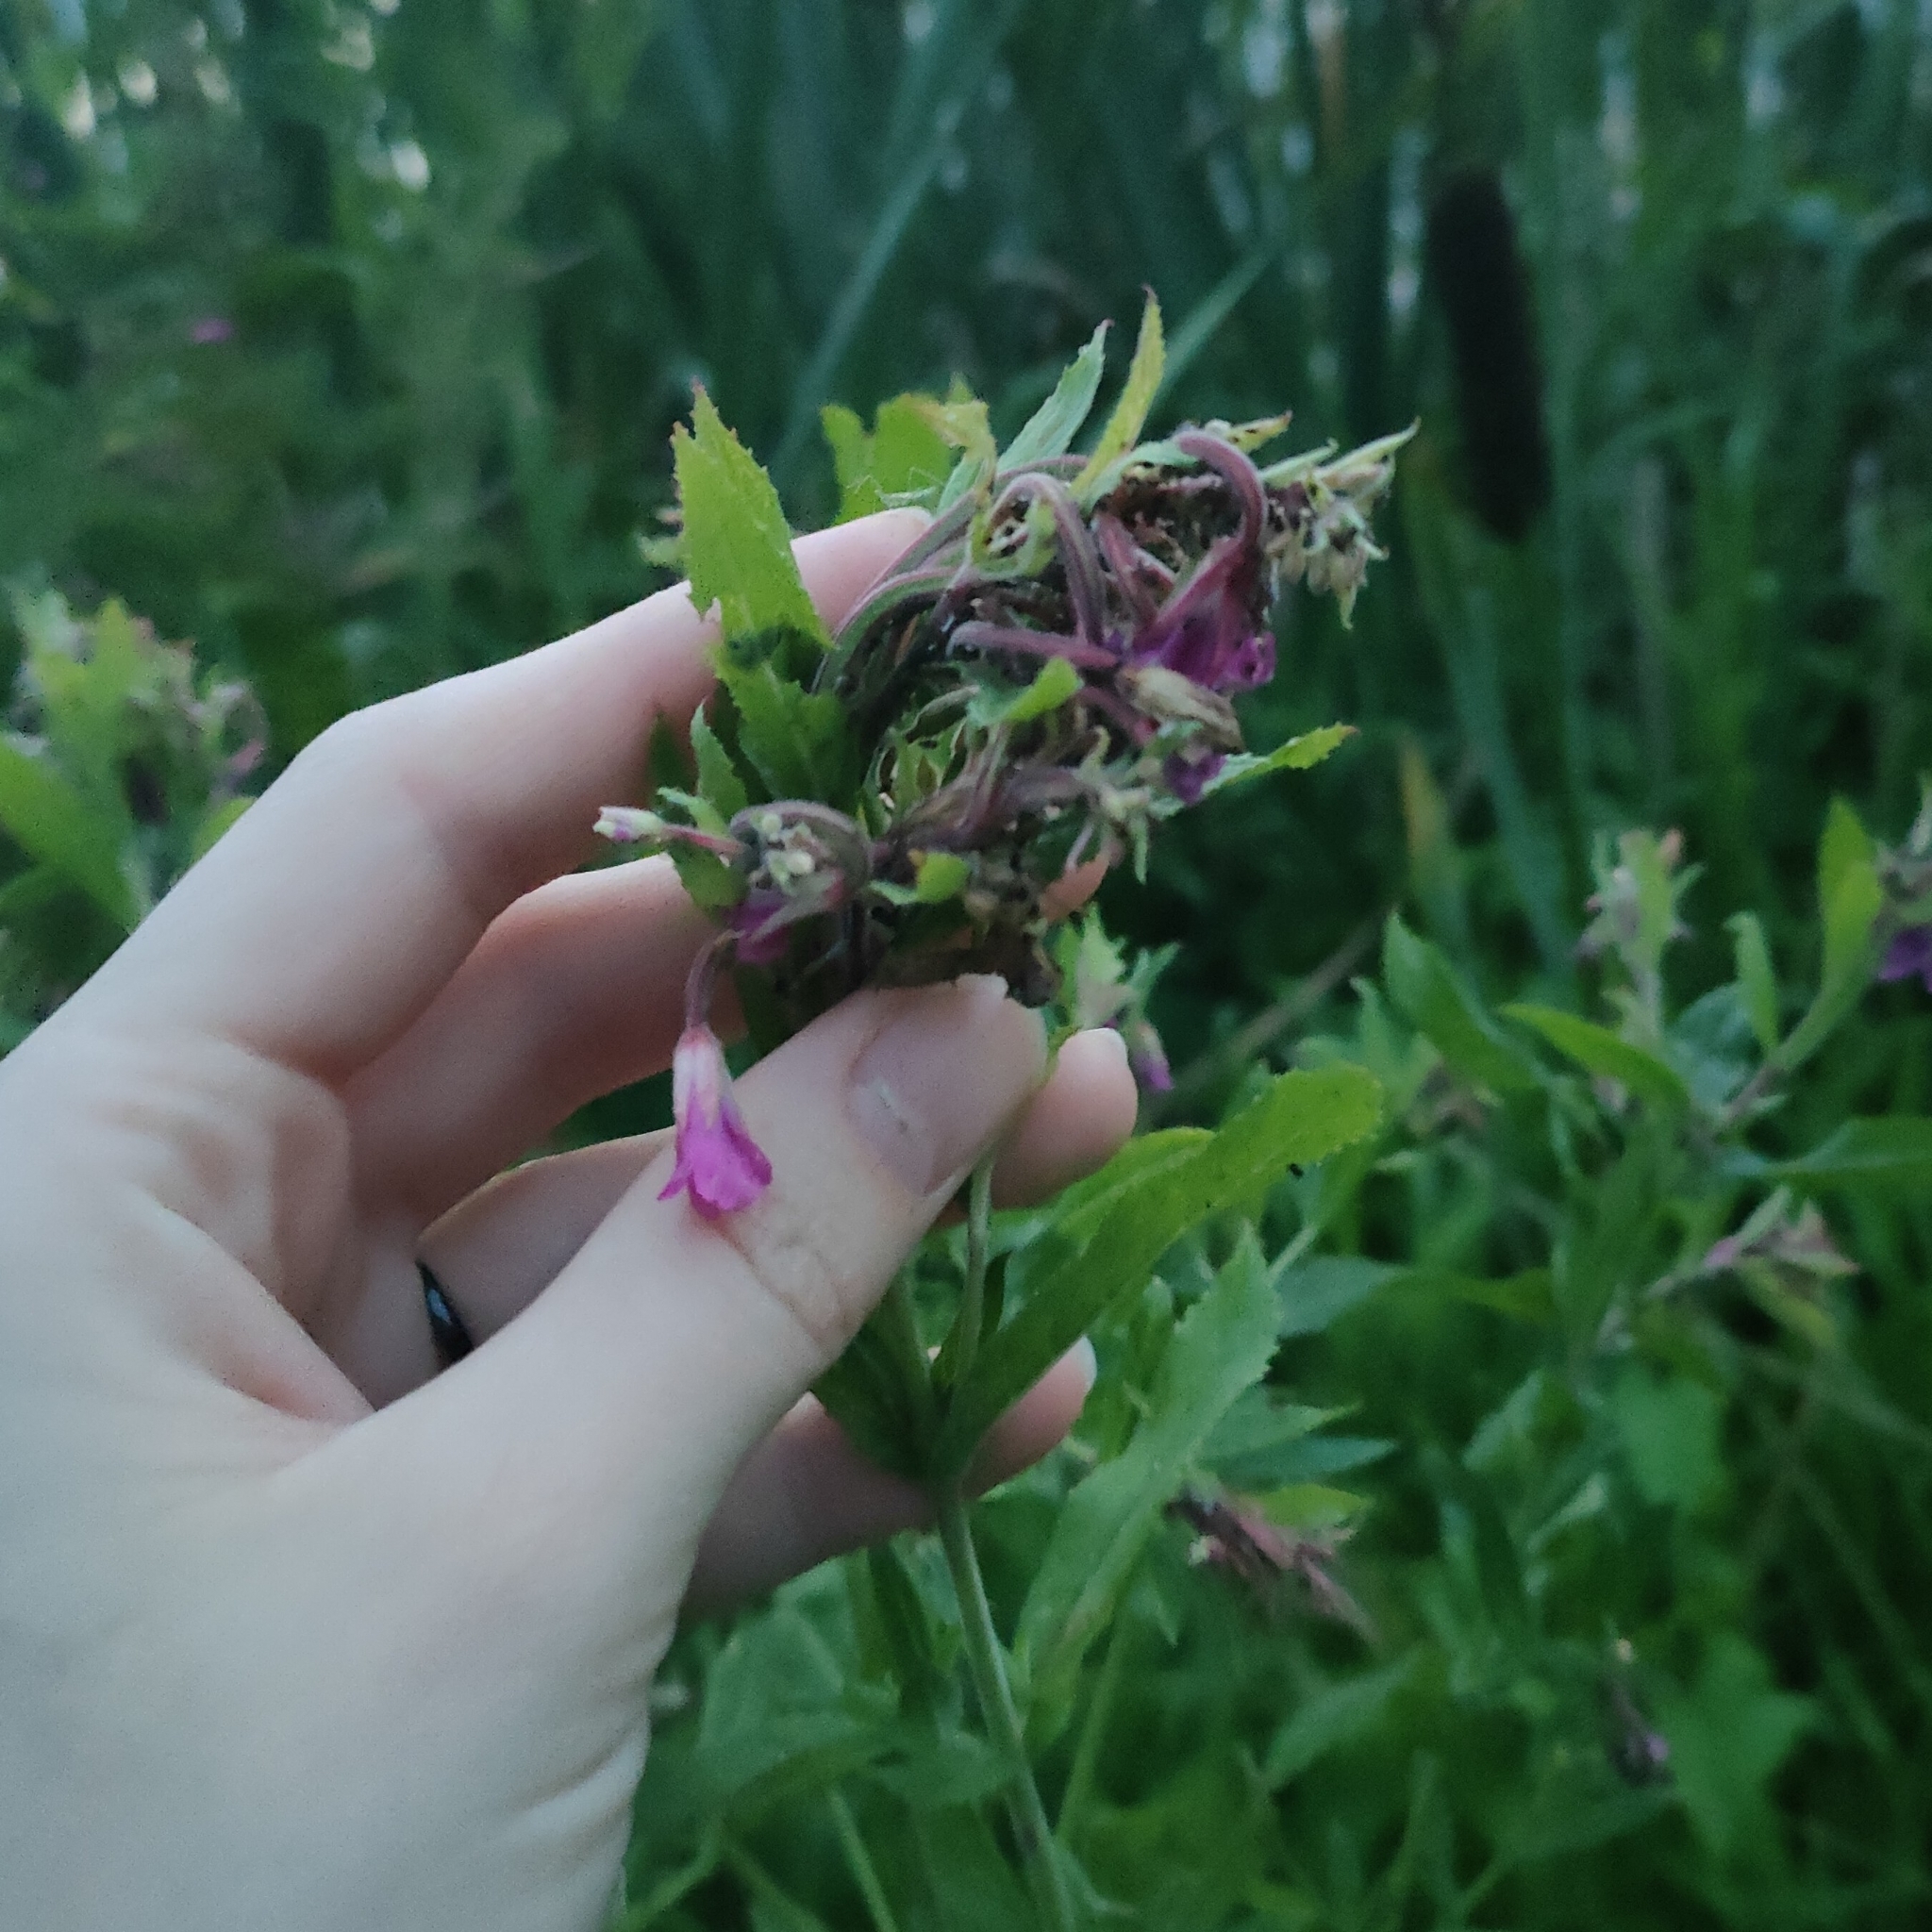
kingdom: Plantae
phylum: Tracheophyta
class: Magnoliopsida
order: Myrtales
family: Onagraceae
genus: Epilobium
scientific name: Epilobium hirsutum
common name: Great willowherb
